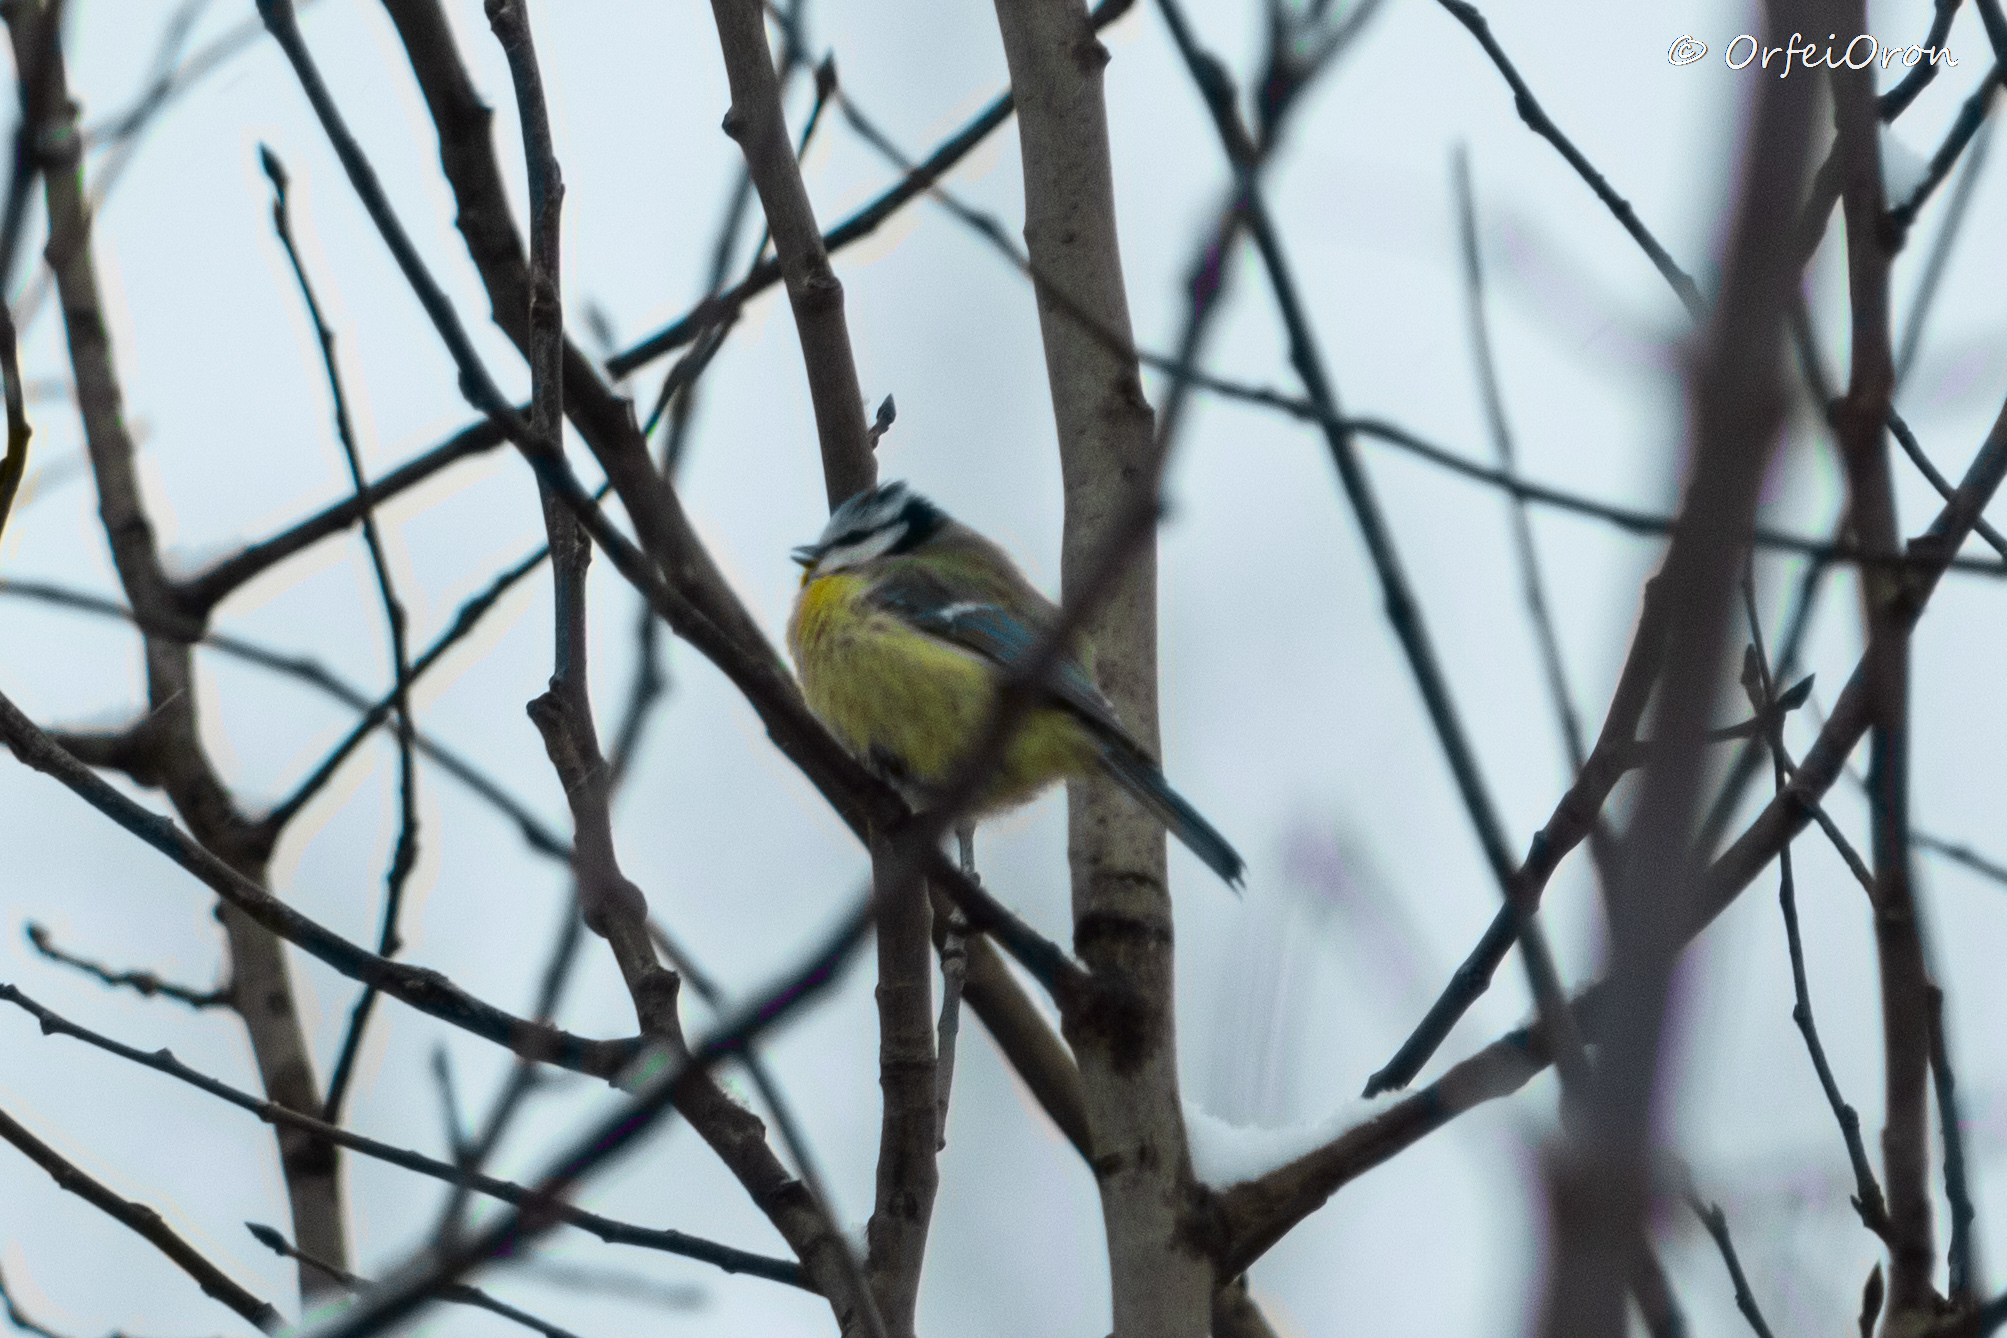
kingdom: Animalia
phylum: Chordata
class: Aves
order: Passeriformes
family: Paridae
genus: Cyanistes
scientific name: Cyanistes caeruleus
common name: Eurasian blue tit
